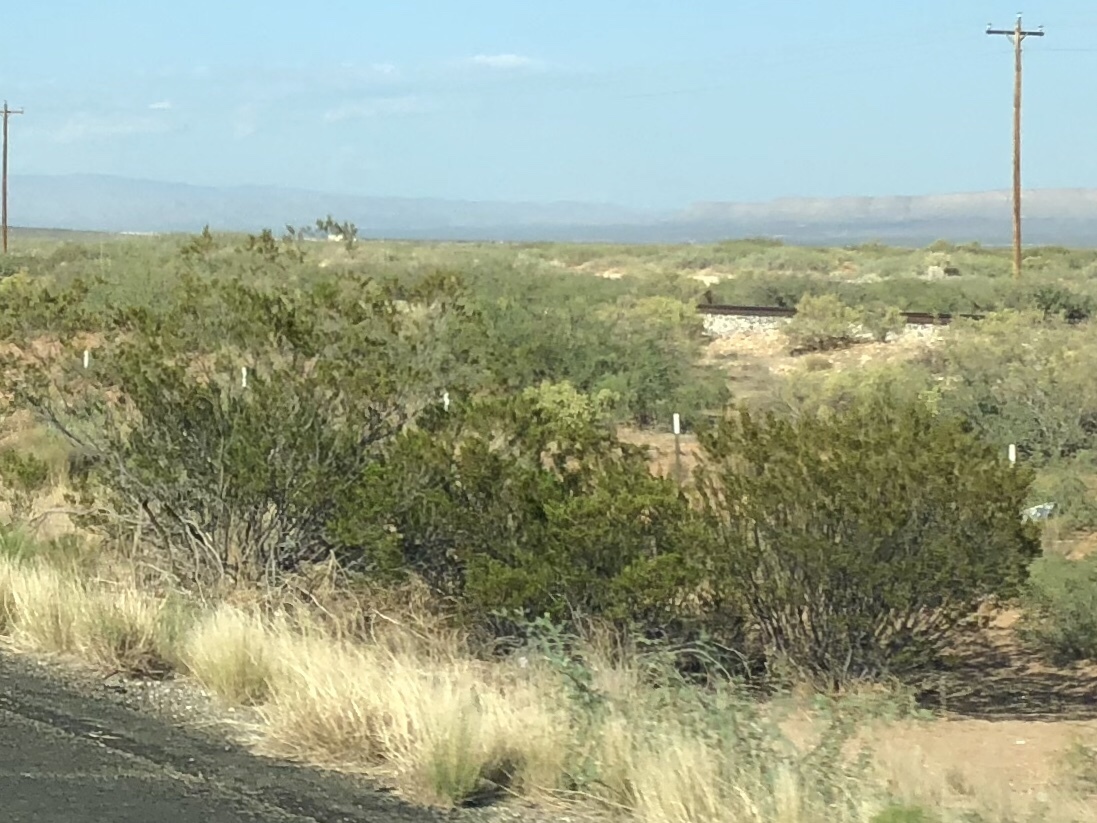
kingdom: Plantae
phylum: Tracheophyta
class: Magnoliopsida
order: Zygophyllales
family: Zygophyllaceae
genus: Larrea
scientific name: Larrea tridentata
